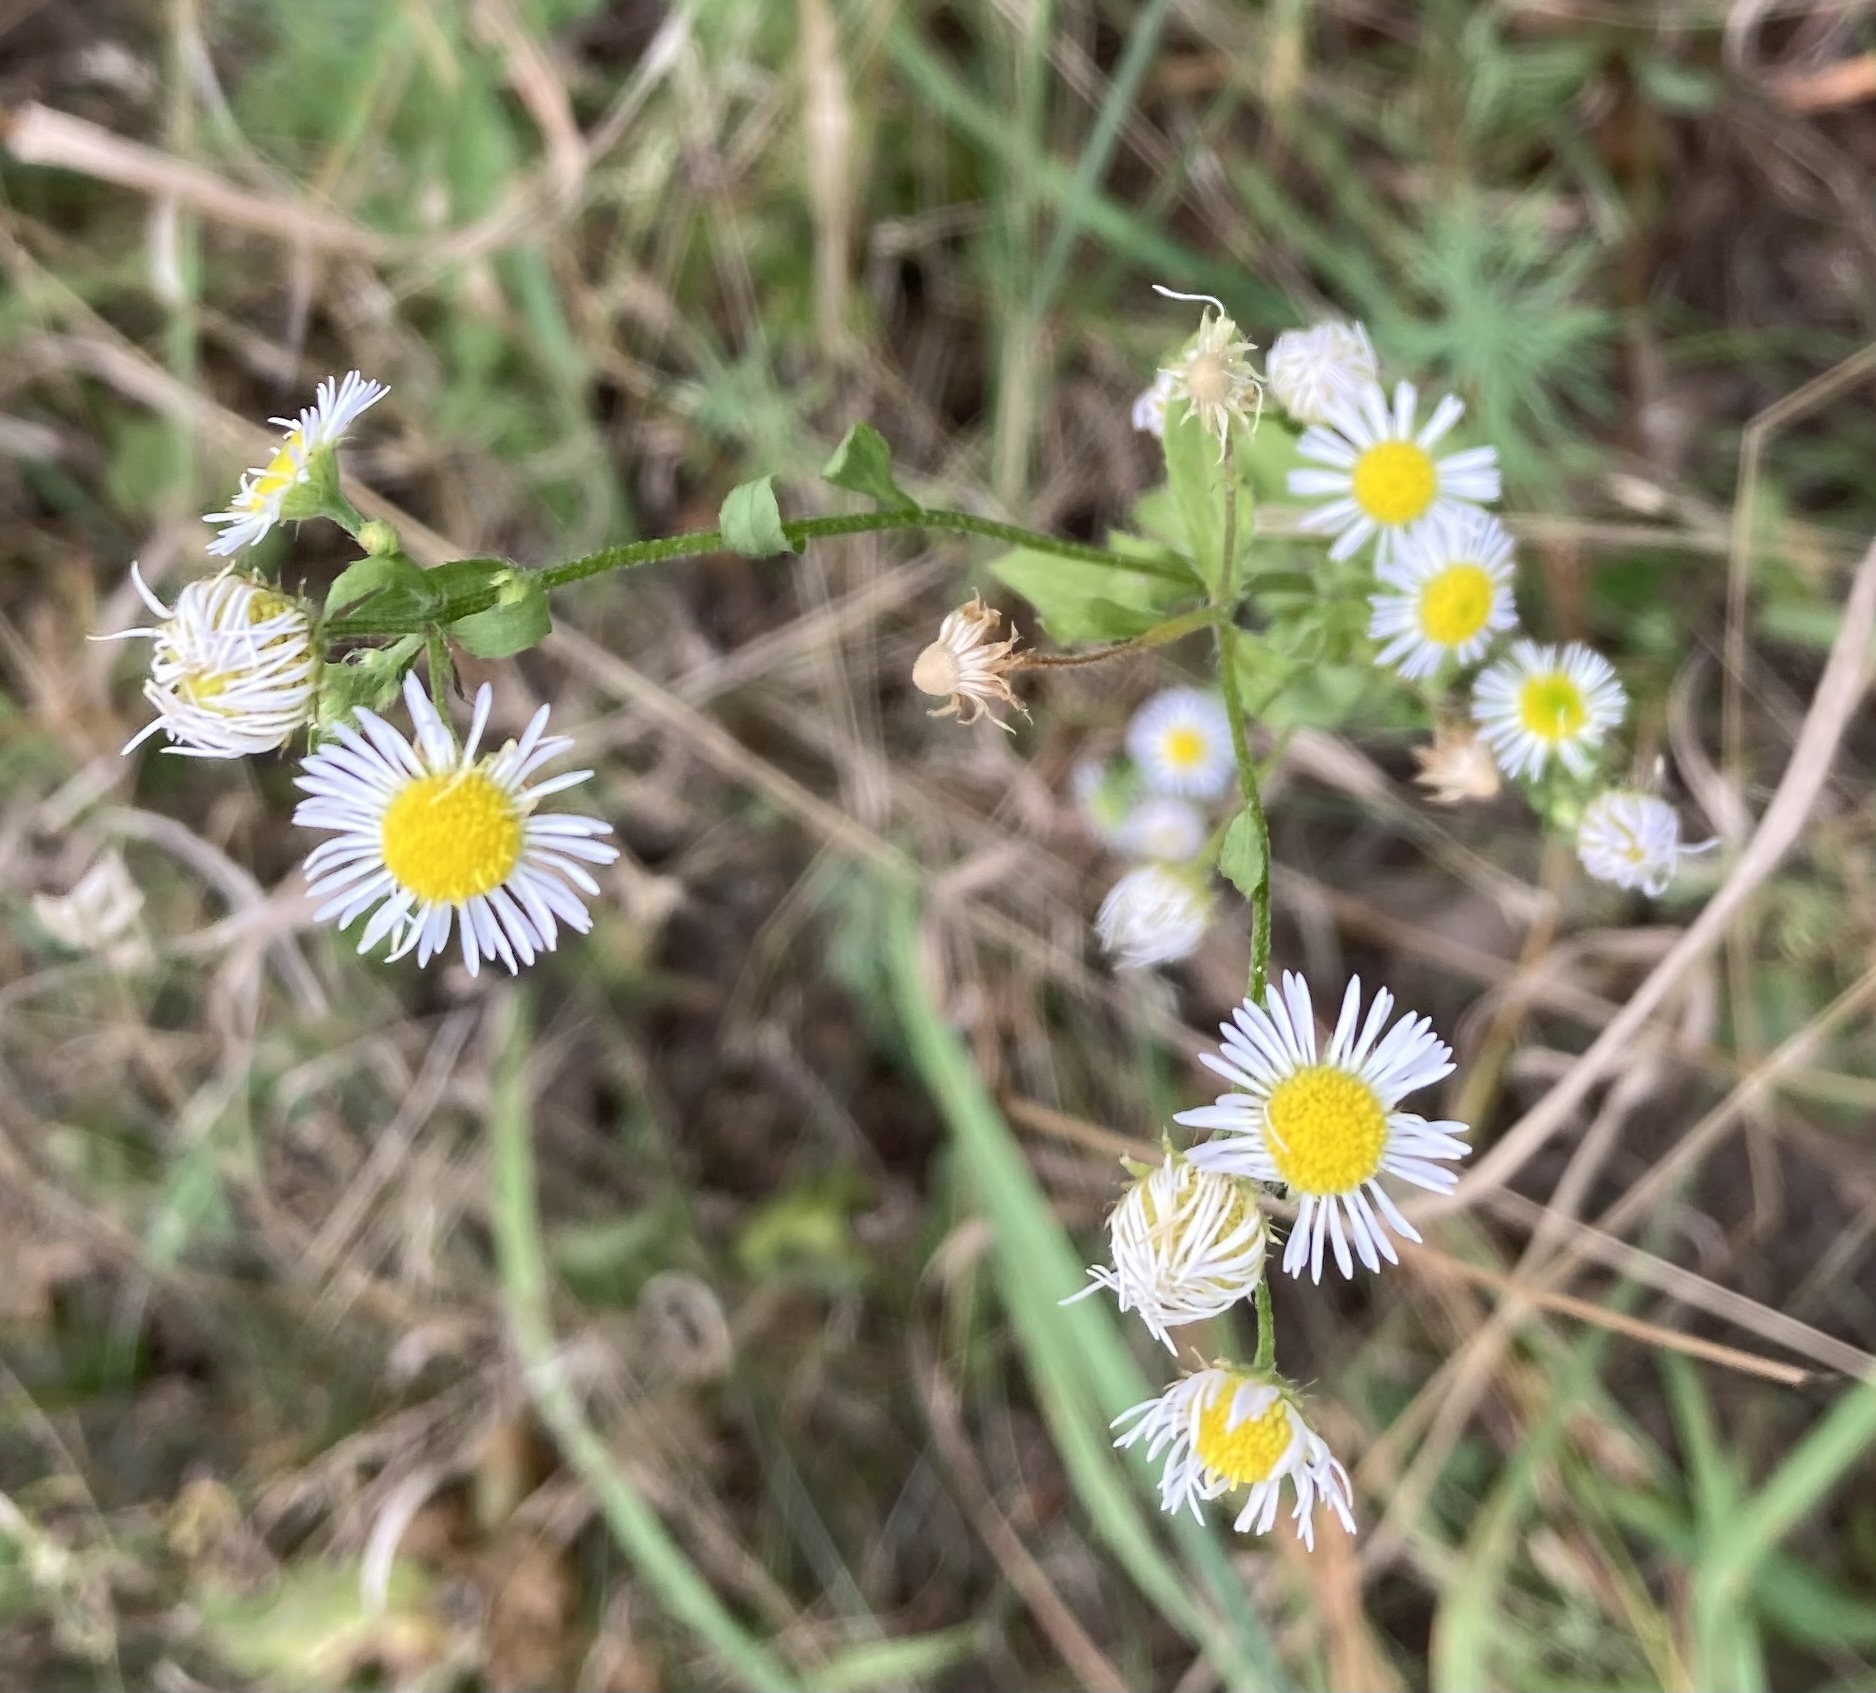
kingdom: Plantae
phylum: Tracheophyta
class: Magnoliopsida
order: Asterales
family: Asteraceae
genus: Erigeron
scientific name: Erigeron annuus
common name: Tall fleabane
